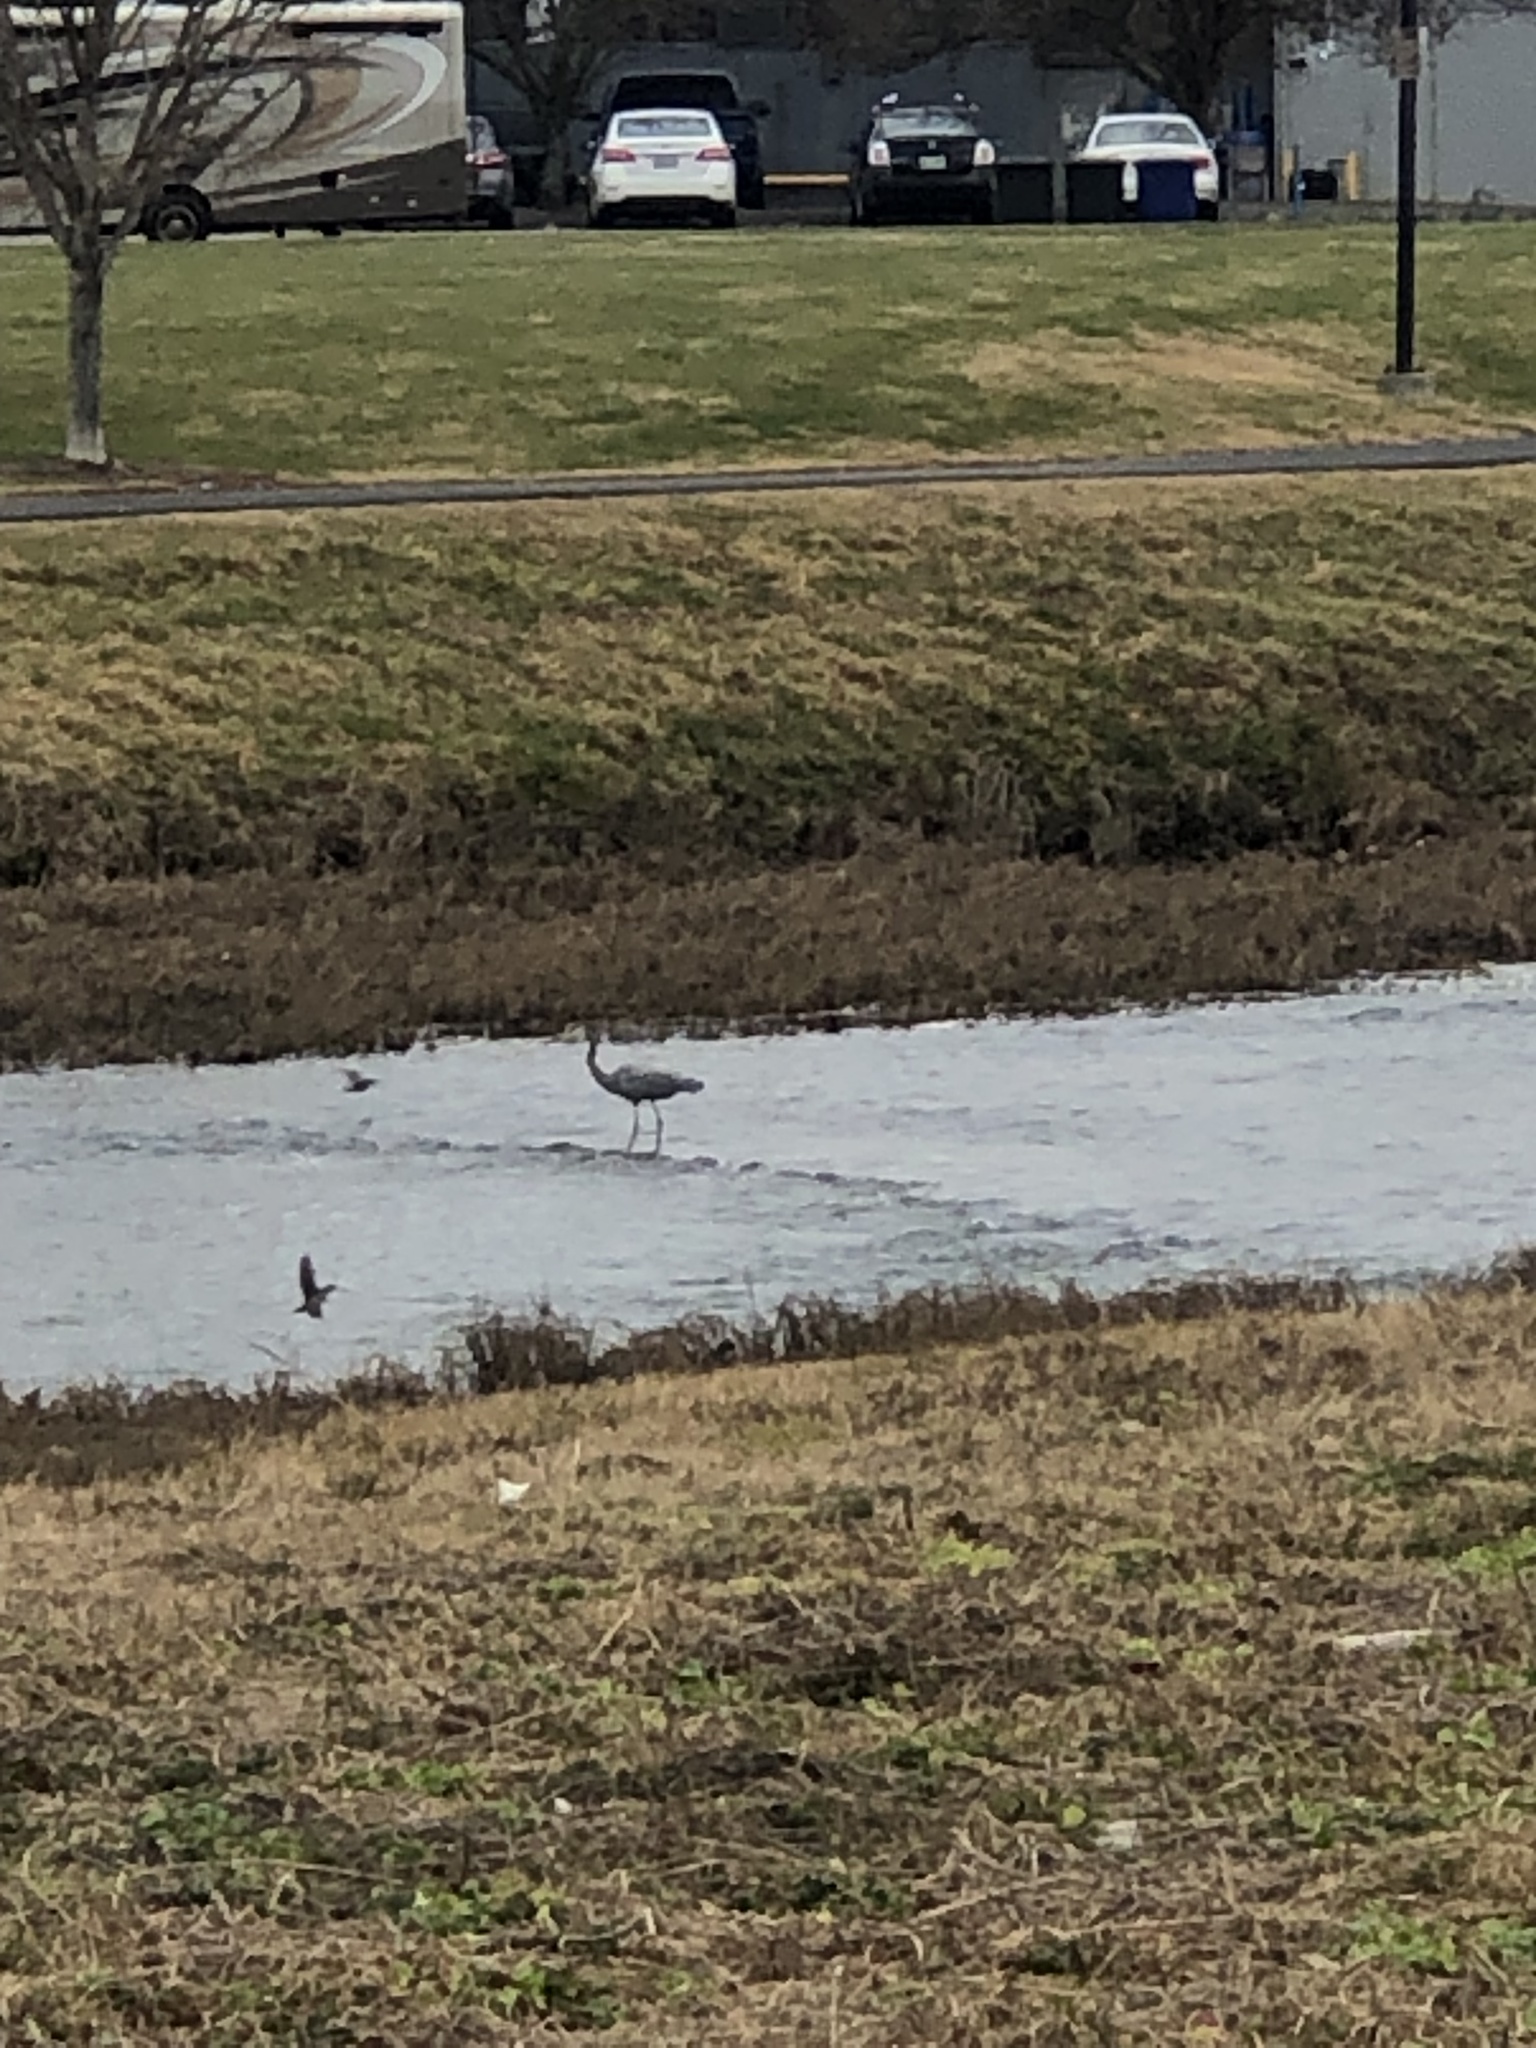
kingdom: Animalia
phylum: Chordata
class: Aves
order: Pelecaniformes
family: Ardeidae
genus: Ardea
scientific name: Ardea herodias
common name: Great blue heron
